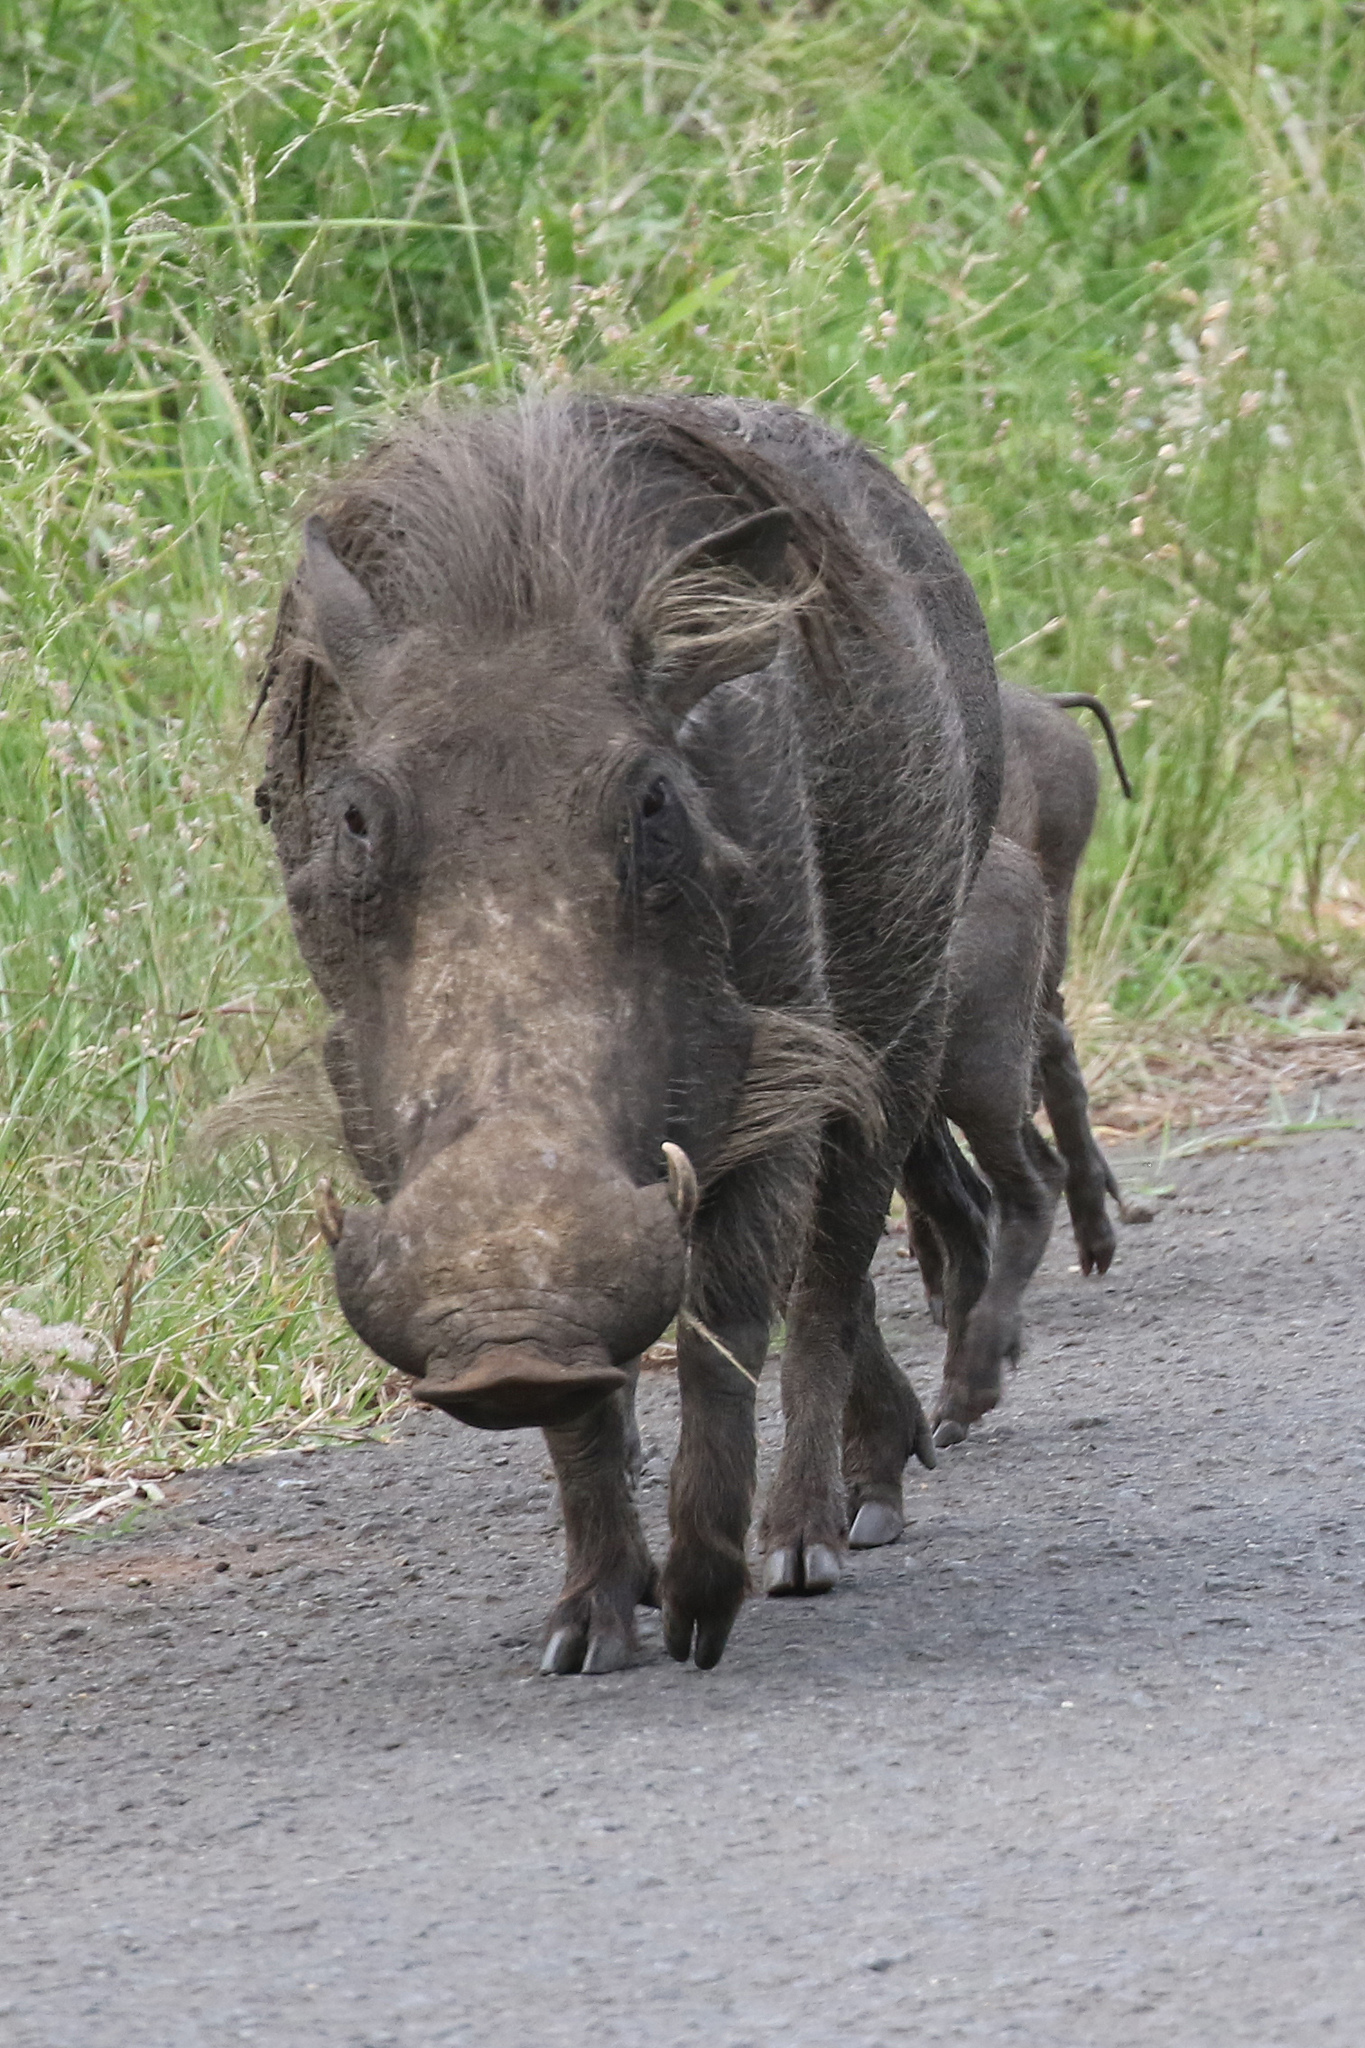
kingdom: Animalia
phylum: Chordata
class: Mammalia
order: Artiodactyla
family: Suidae
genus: Phacochoerus
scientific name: Phacochoerus africanus
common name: Common warthog
